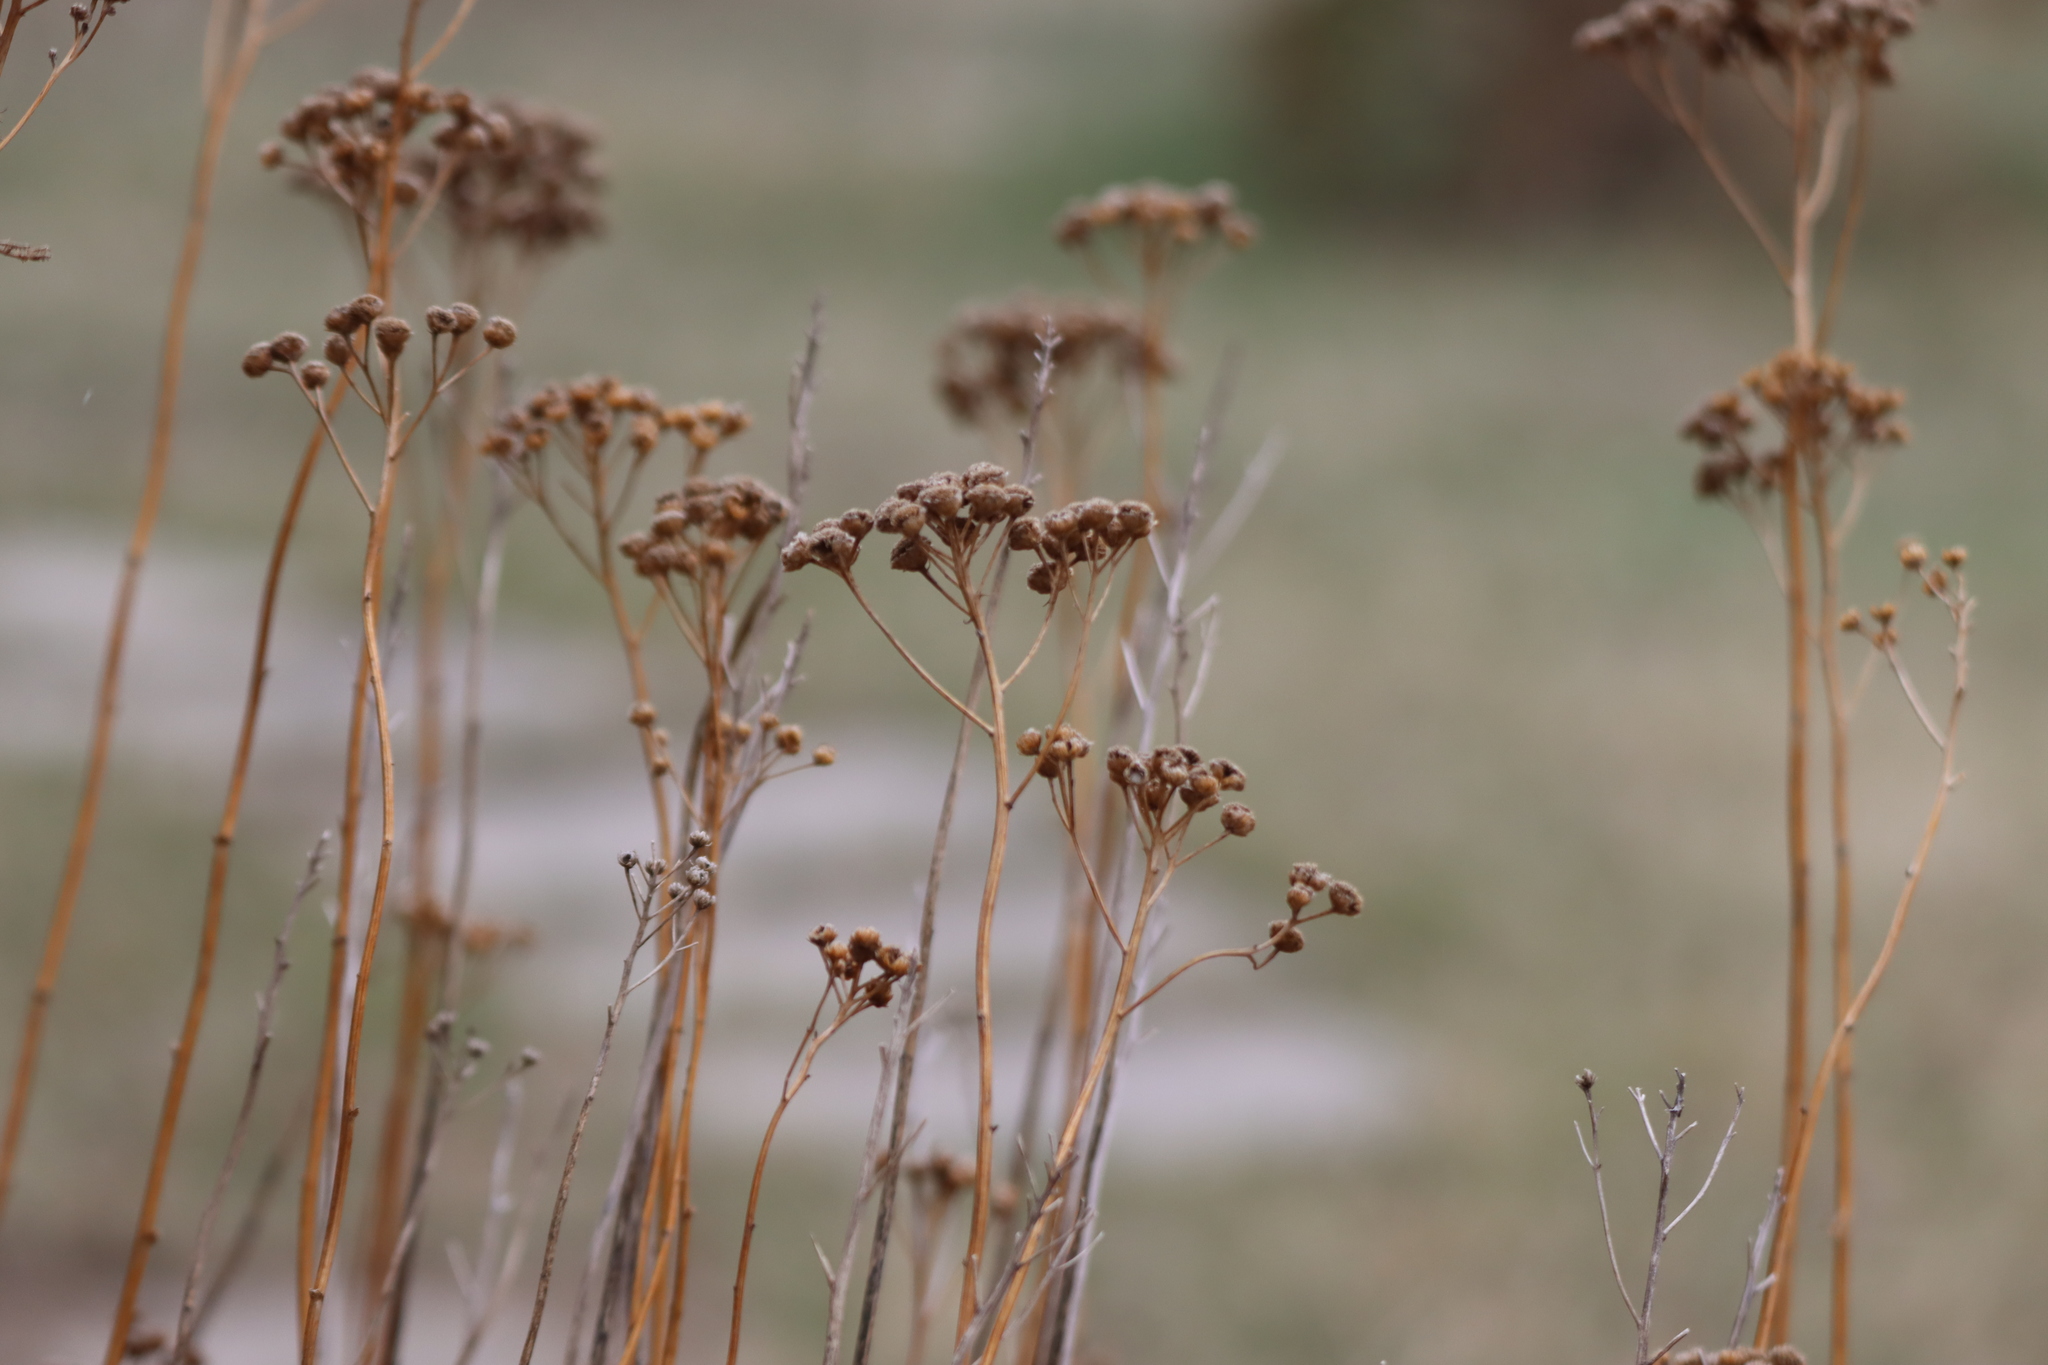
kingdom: Plantae
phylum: Tracheophyta
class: Magnoliopsida
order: Asterales
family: Asteraceae
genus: Tanacetum
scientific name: Tanacetum vulgare
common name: Common tansy
